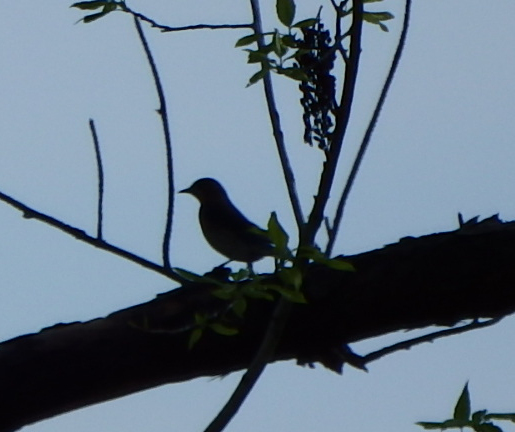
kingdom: Animalia
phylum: Chordata
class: Aves
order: Passeriformes
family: Turdidae
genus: Sialia
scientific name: Sialia sialis
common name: Eastern bluebird
